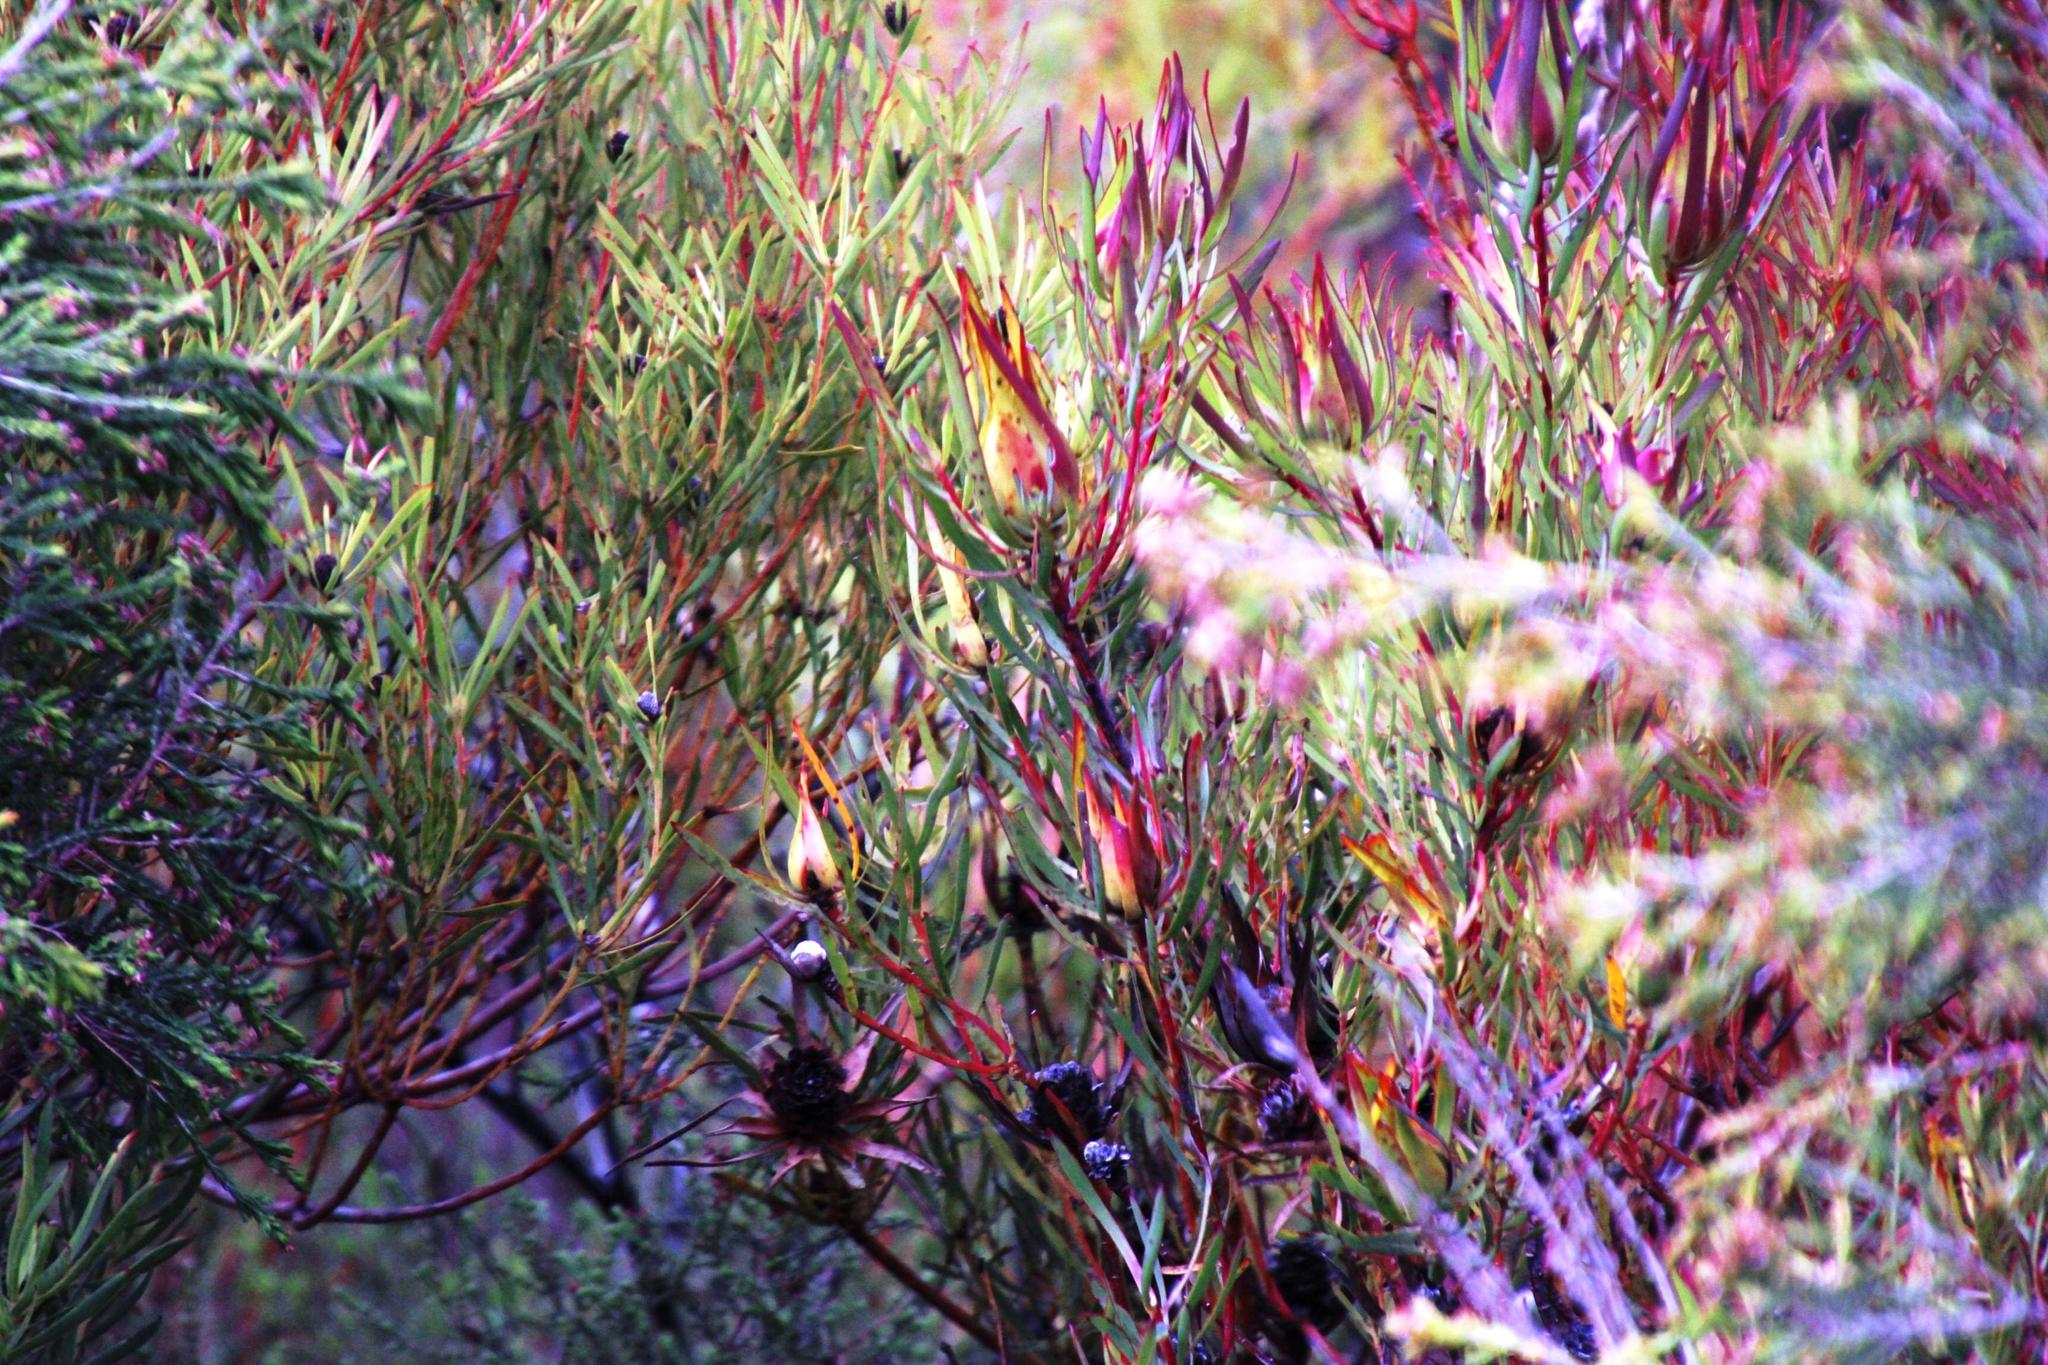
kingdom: Plantae
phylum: Tracheophyta
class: Magnoliopsida
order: Proteales
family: Proteaceae
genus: Leucadendron
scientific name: Leucadendron salignum
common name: Common sunshine conebush
